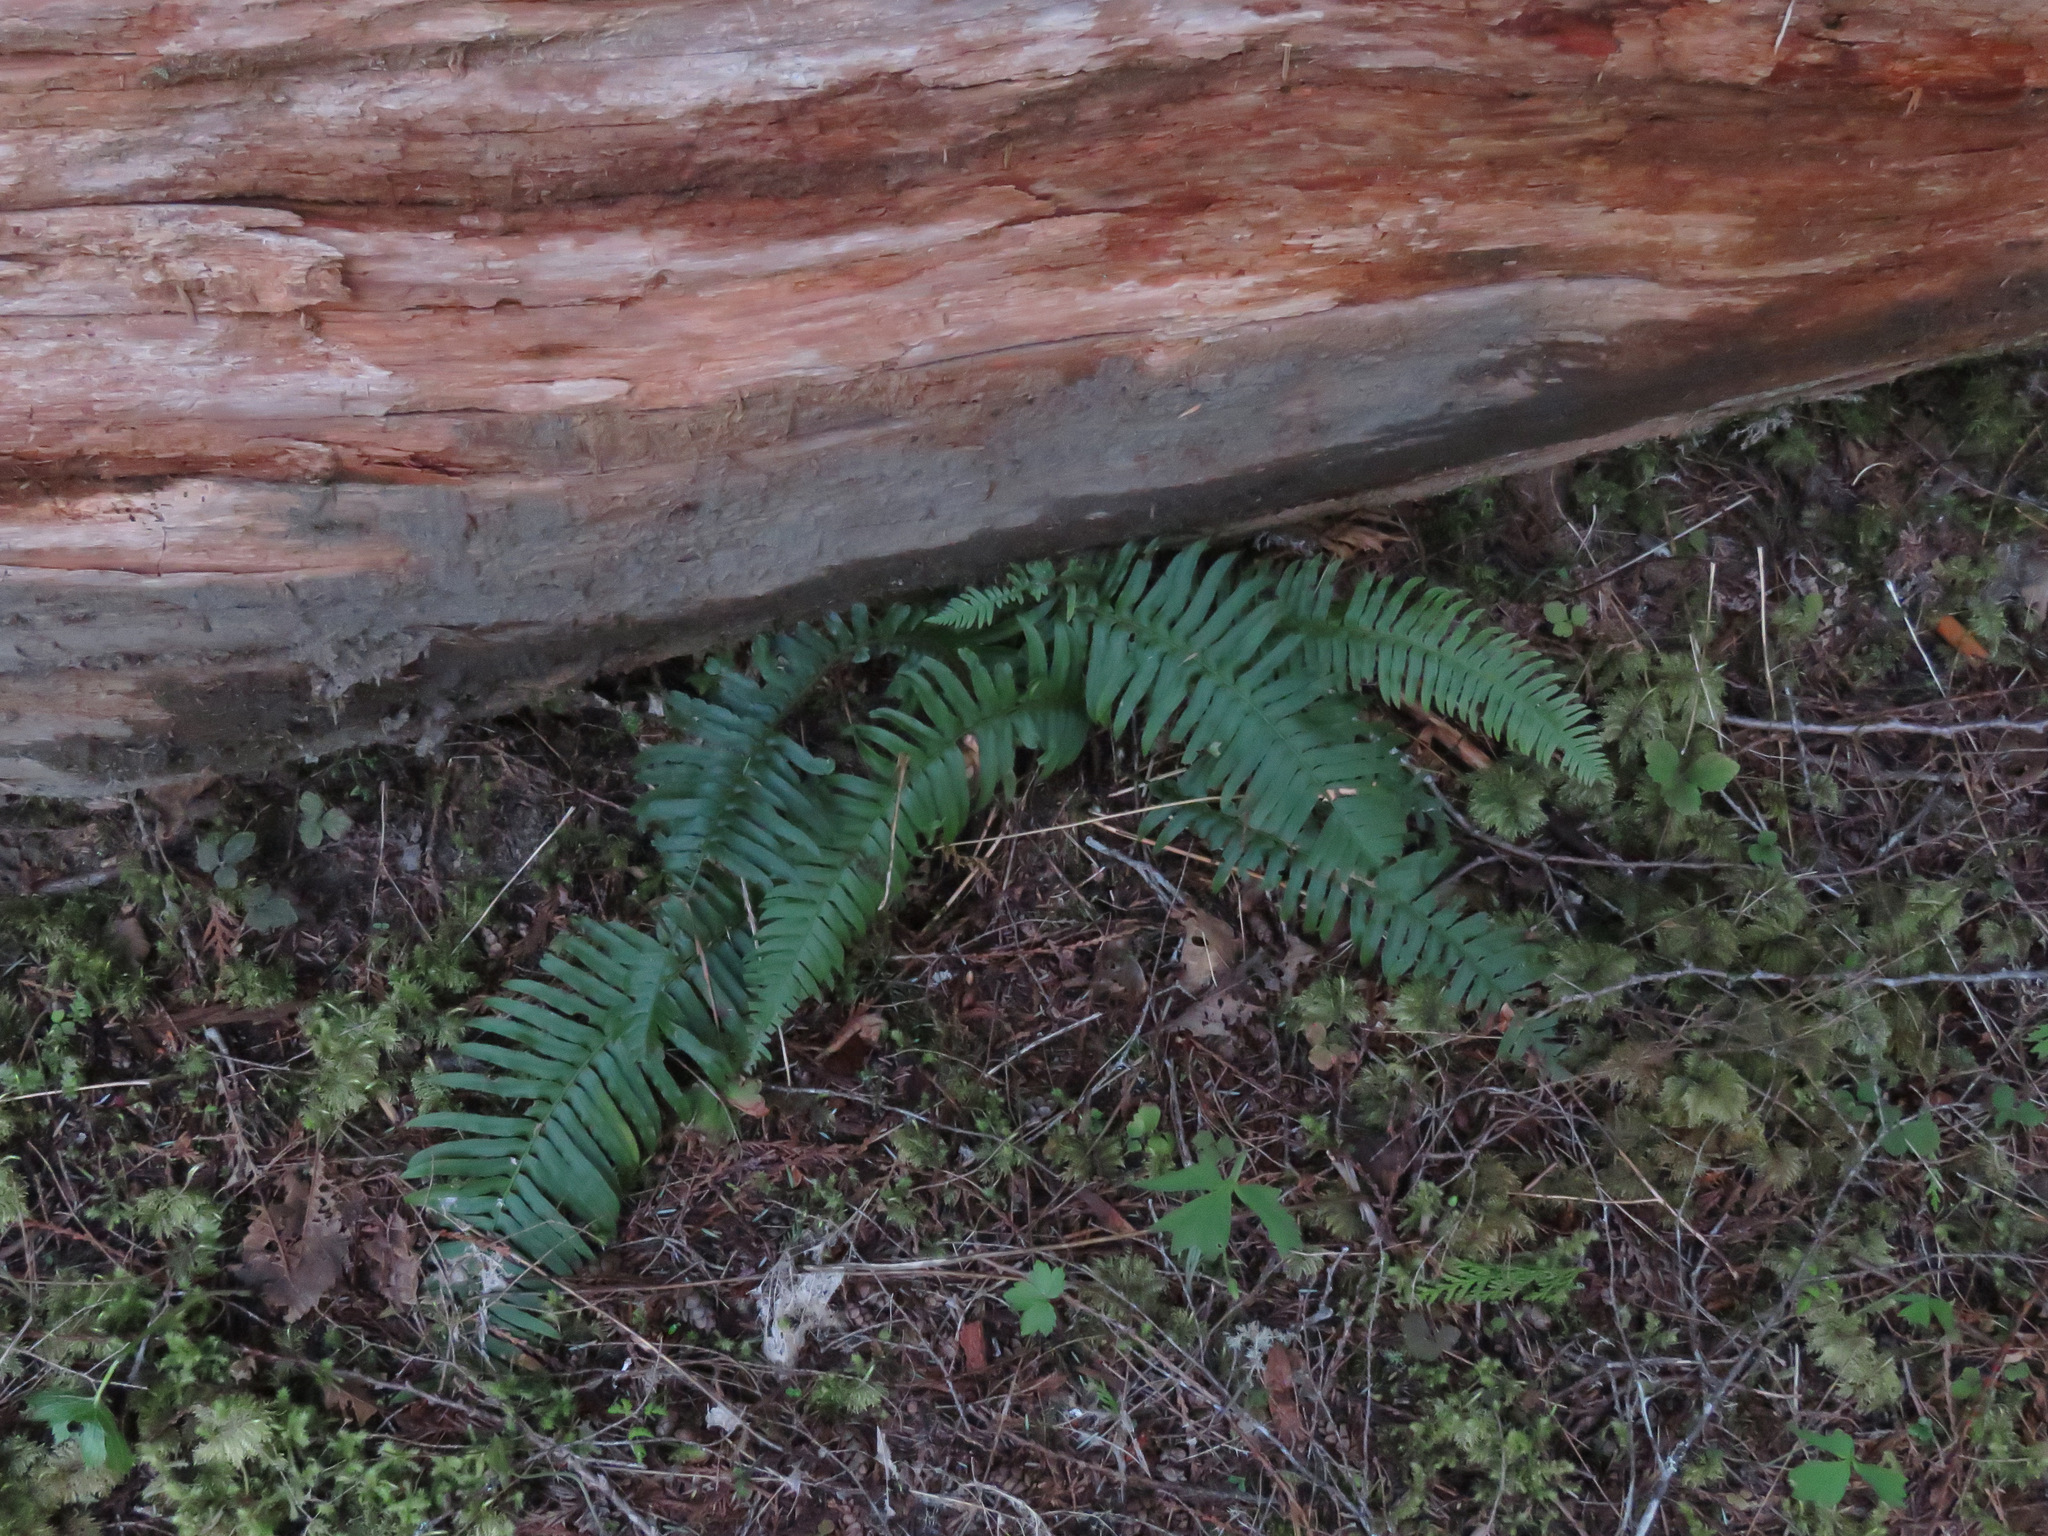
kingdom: Plantae
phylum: Tracheophyta
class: Polypodiopsida
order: Polypodiales
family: Dryopteridaceae
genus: Polystichum
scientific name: Polystichum munitum
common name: Western sword-fern
